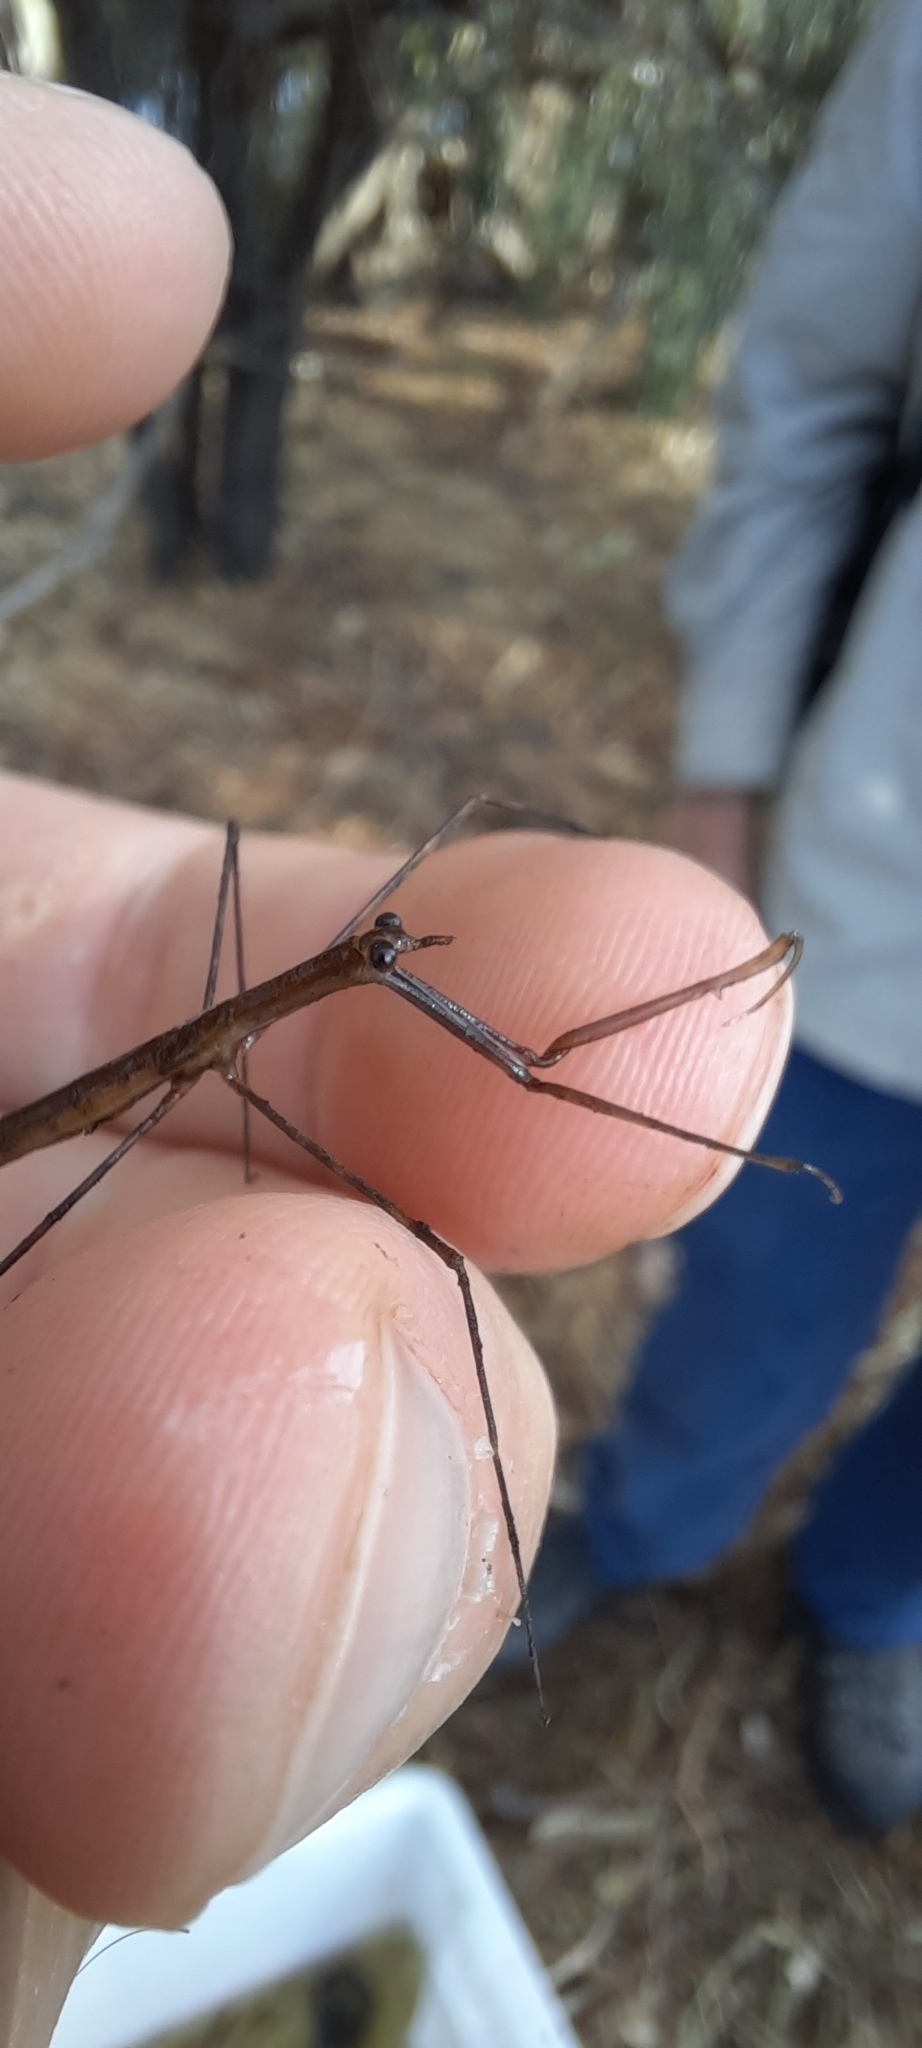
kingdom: Animalia
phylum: Arthropoda
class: Insecta
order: Hemiptera
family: Nepidae
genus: Ranatra
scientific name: Ranatra dispar
